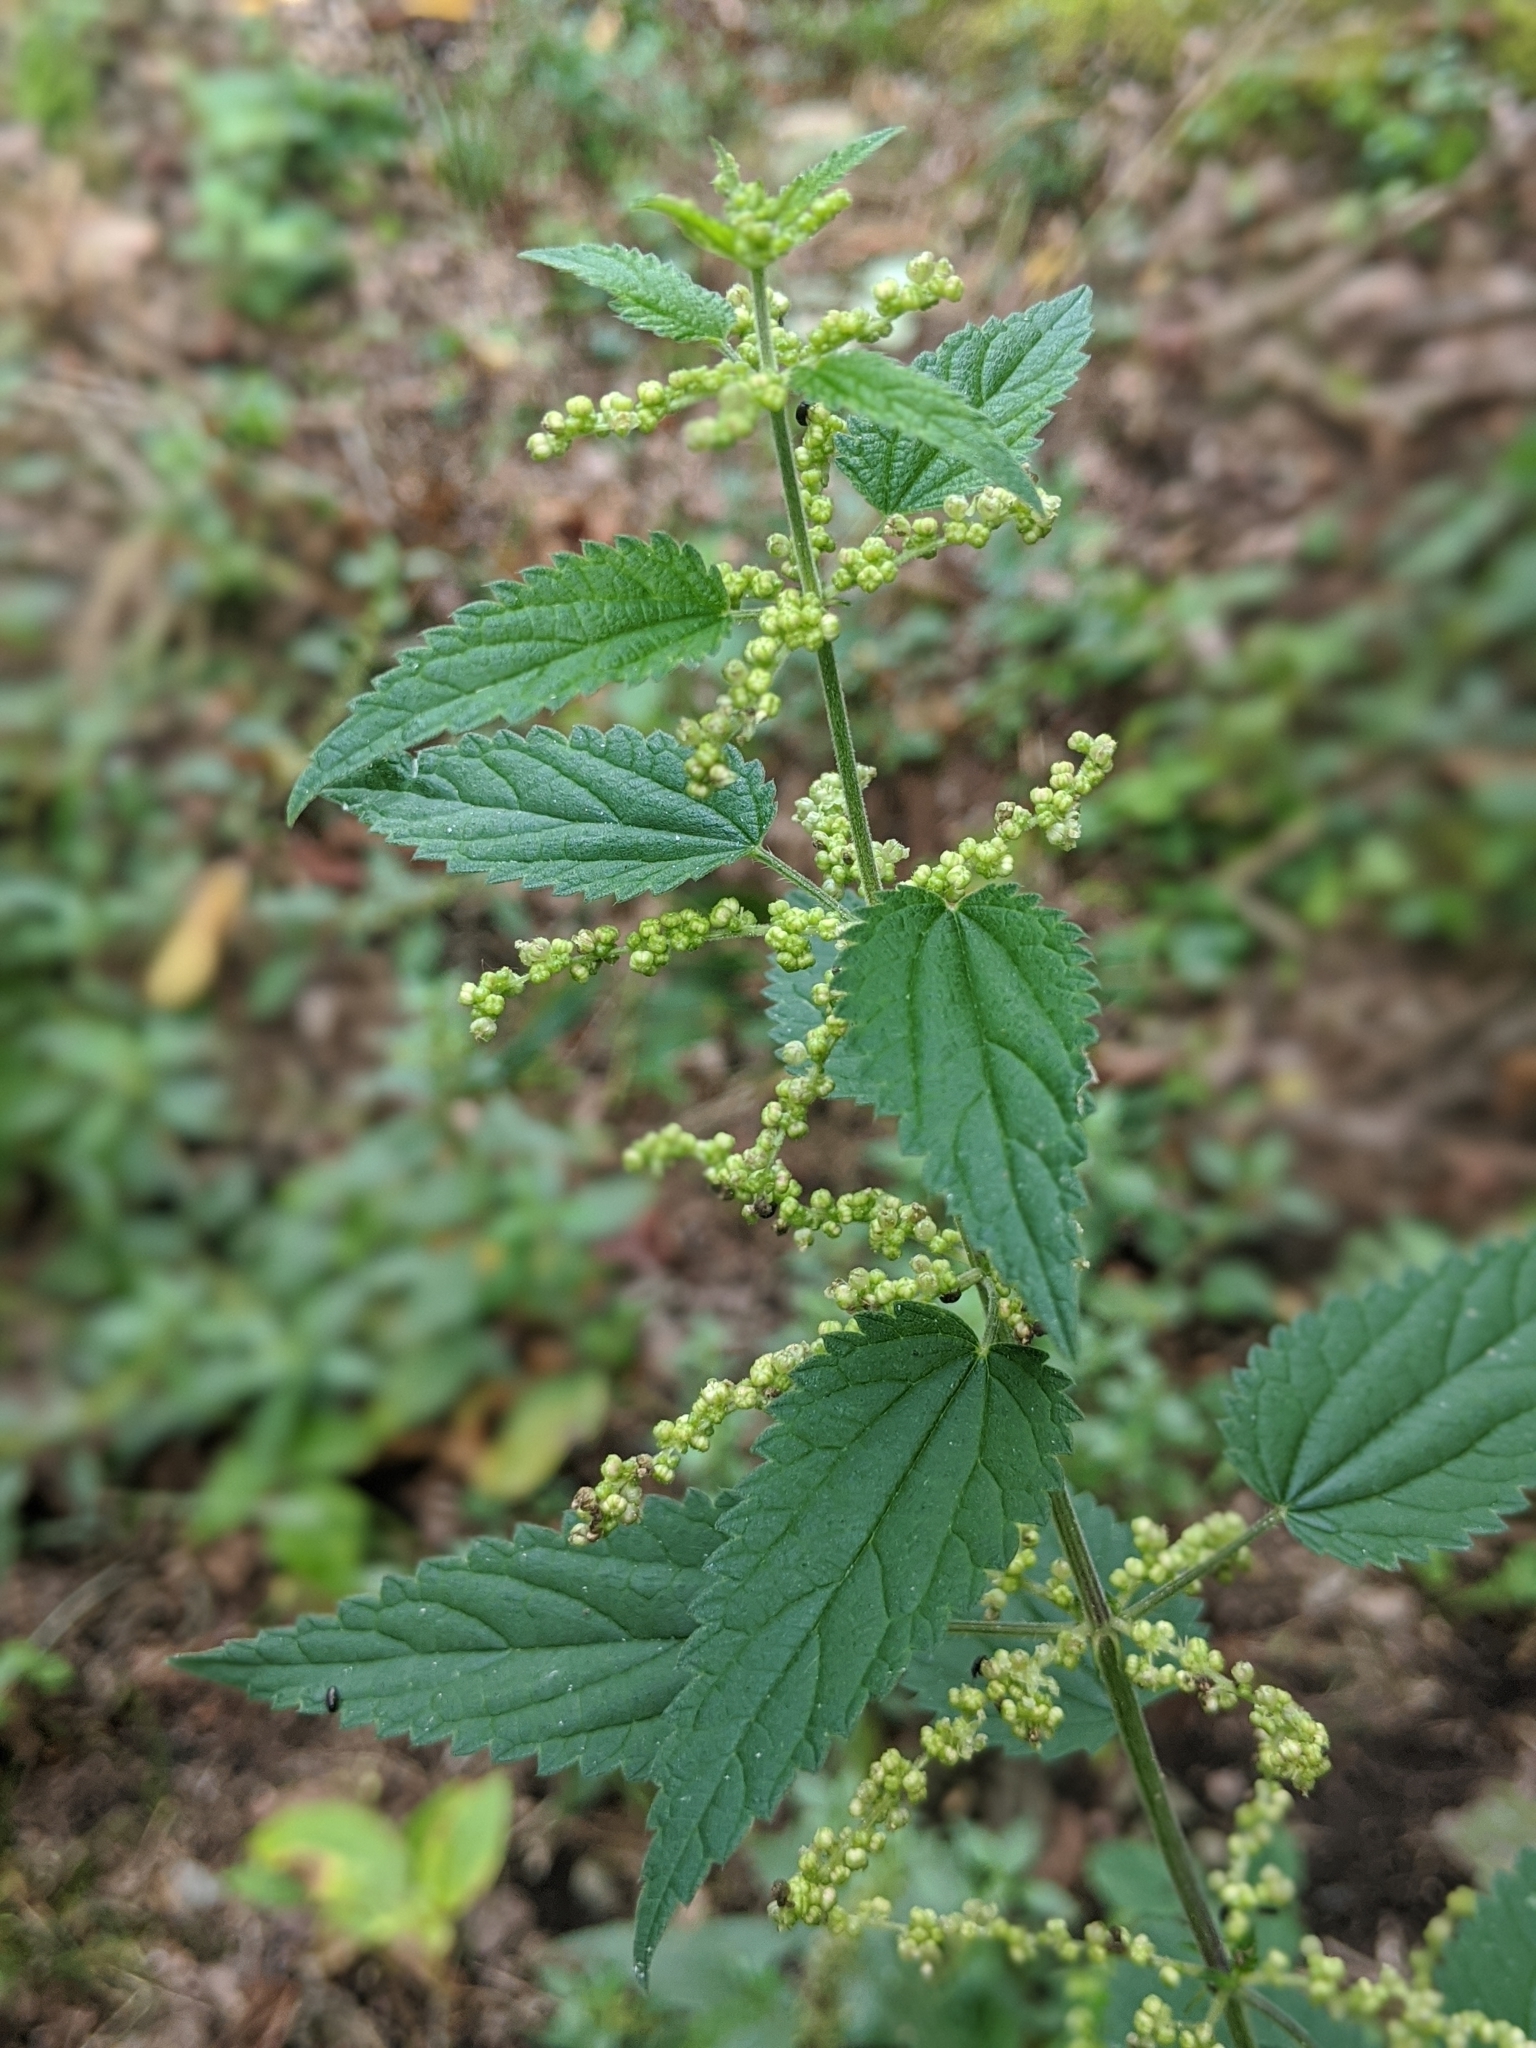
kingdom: Plantae
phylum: Tracheophyta
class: Magnoliopsida
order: Rosales
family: Urticaceae
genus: Urtica
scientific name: Urtica dioica
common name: Common nettle
